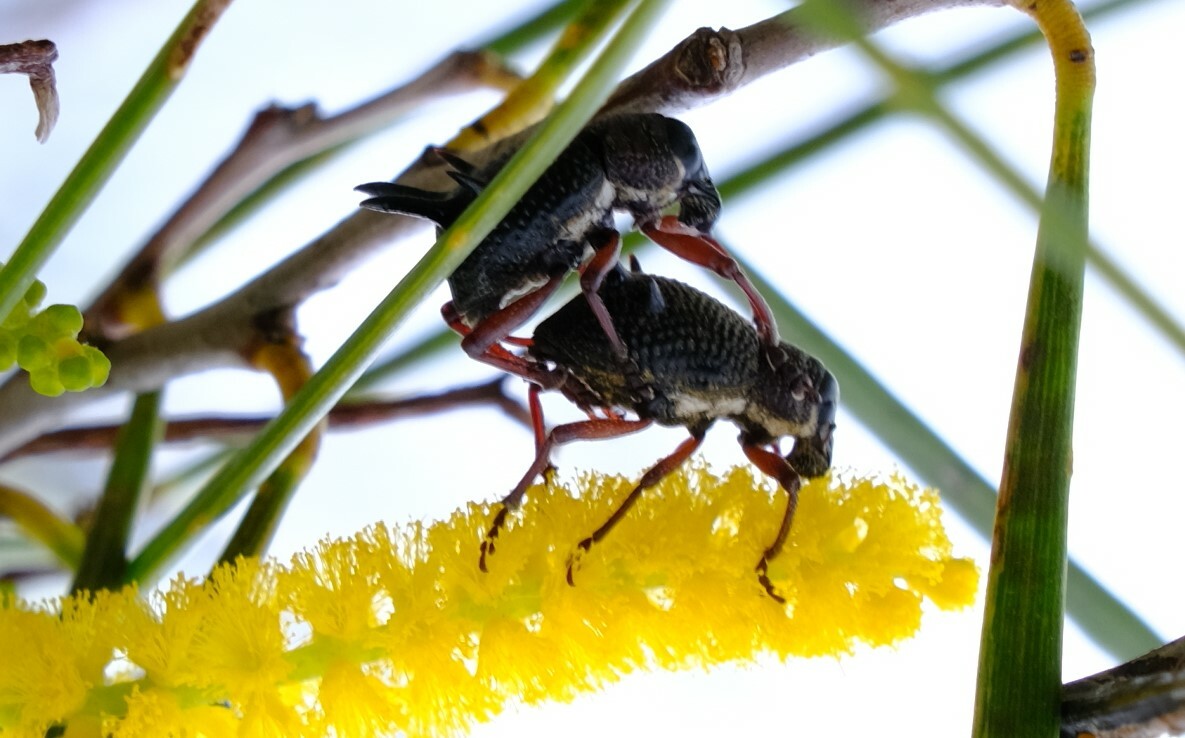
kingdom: Animalia
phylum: Arthropoda
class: Insecta
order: Coleoptera
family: Curculionidae
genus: Catasarcus
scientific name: Catasarcus albipectus
